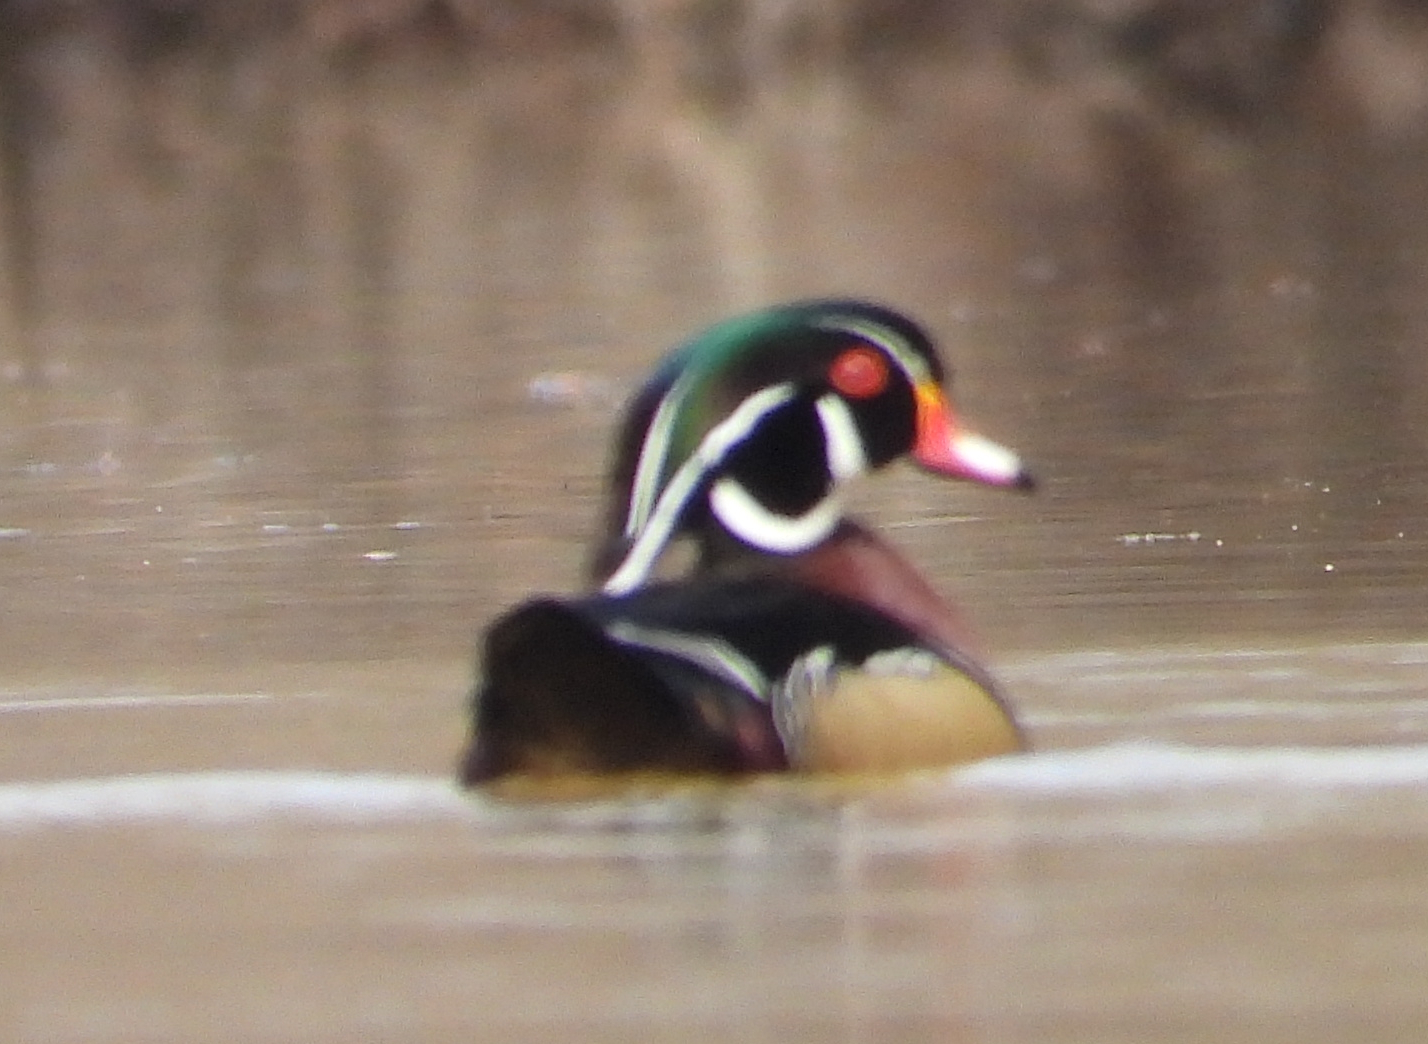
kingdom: Animalia
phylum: Chordata
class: Aves
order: Anseriformes
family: Anatidae
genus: Aix
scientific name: Aix sponsa
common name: Wood duck
